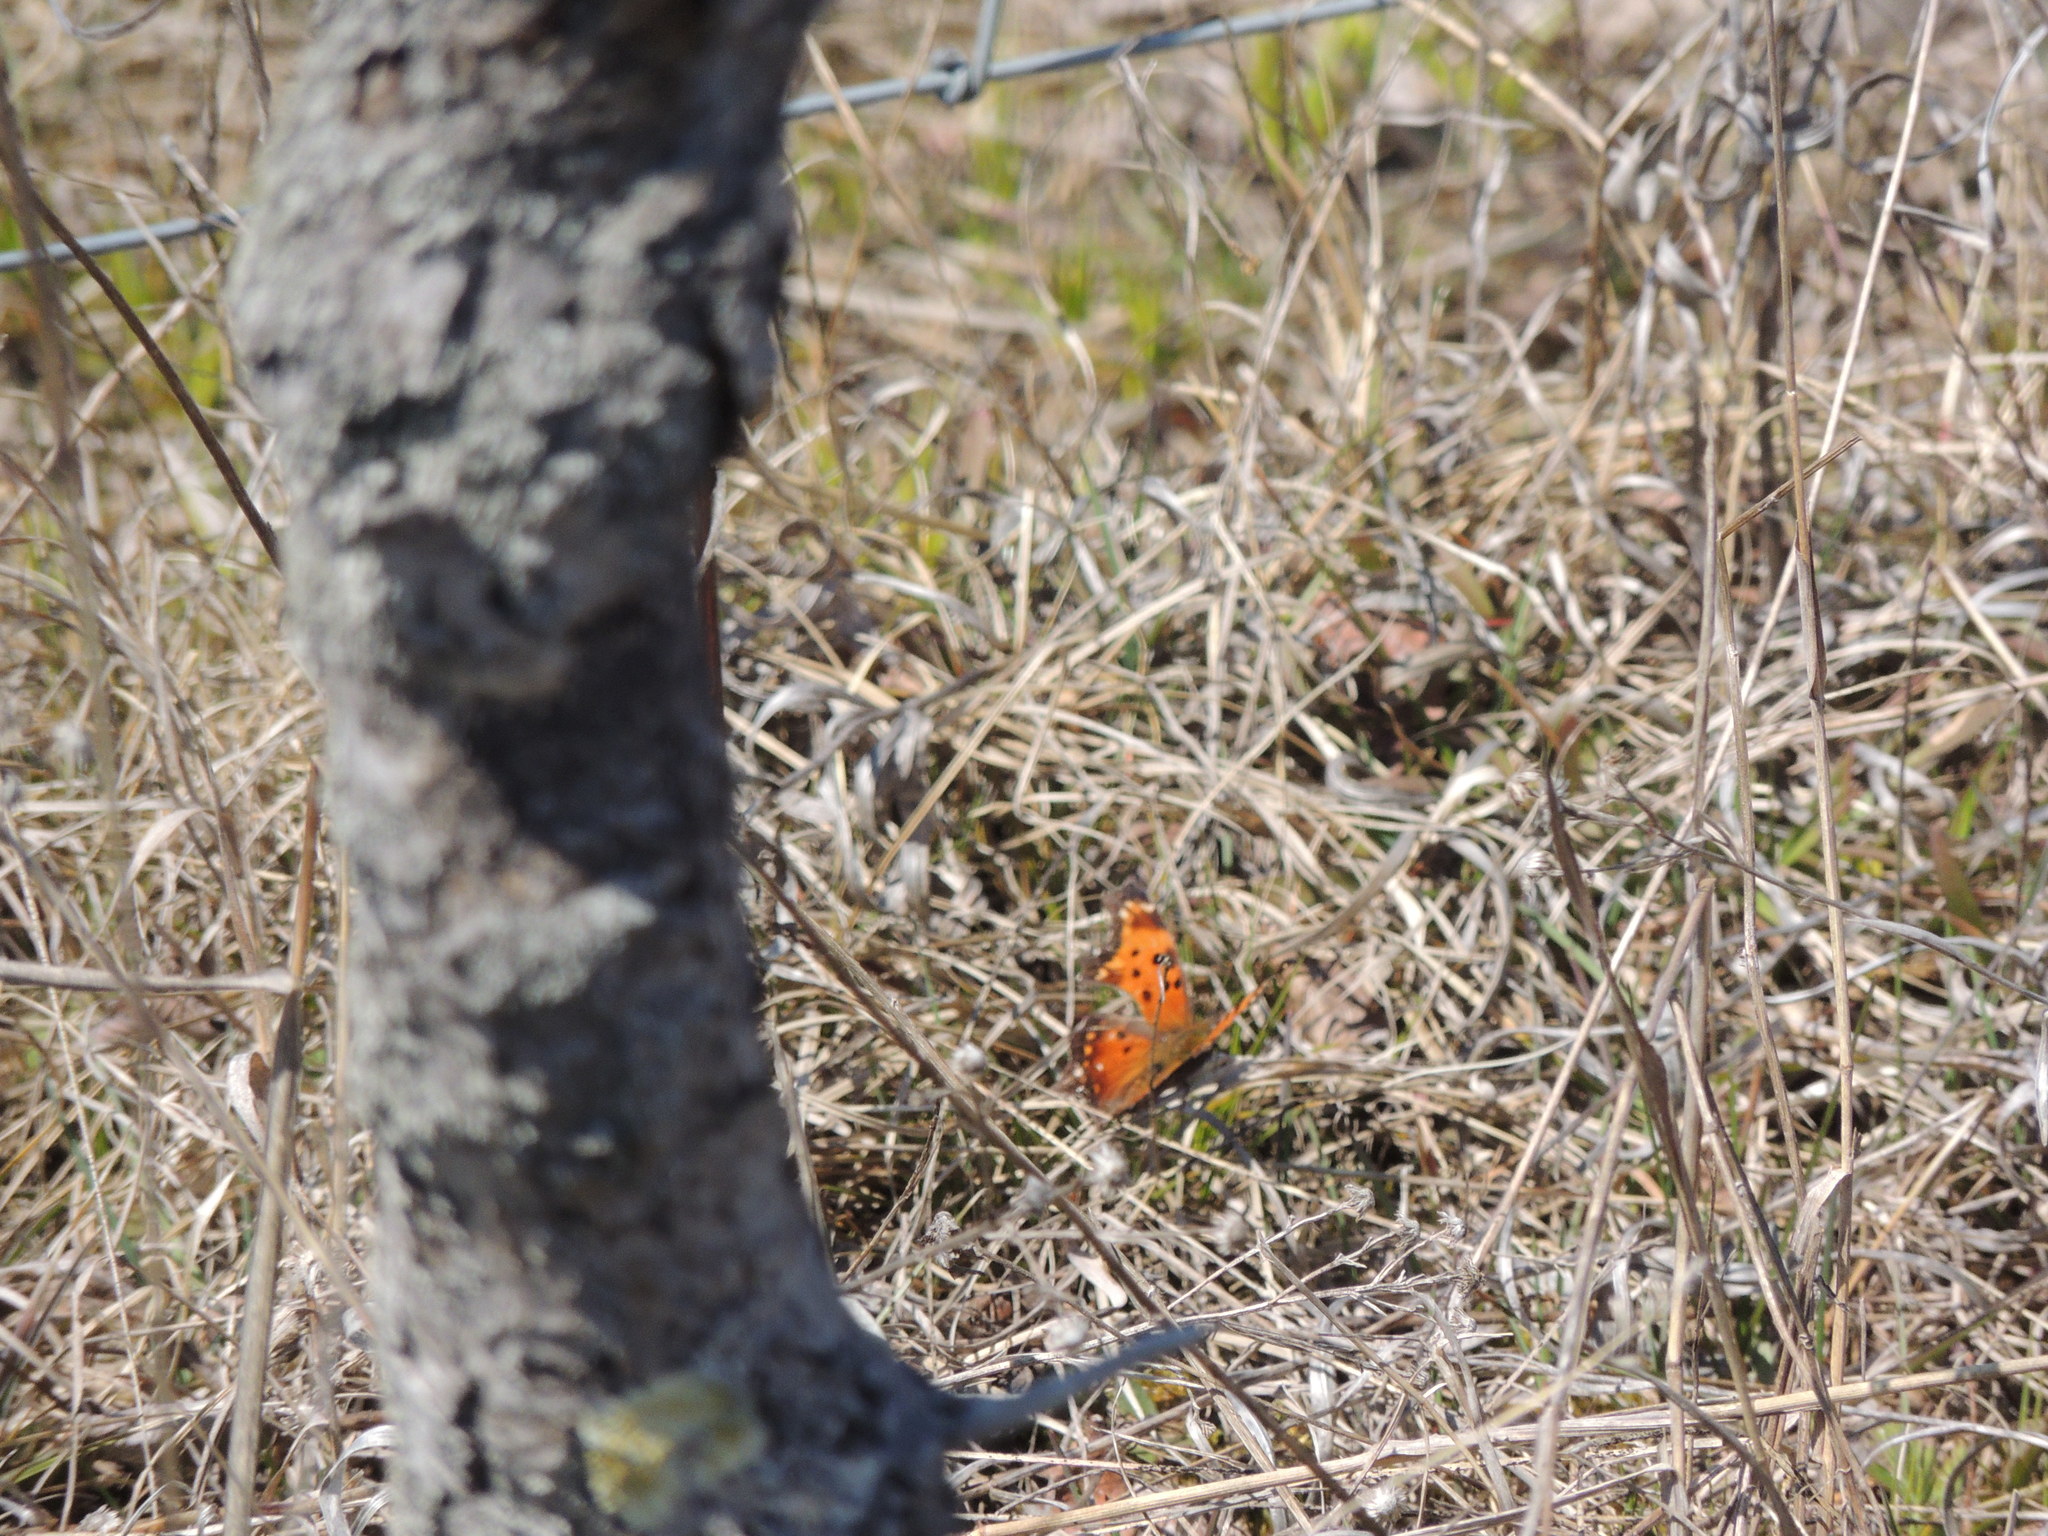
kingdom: Animalia
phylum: Arthropoda
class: Insecta
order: Lepidoptera
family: Nymphalidae
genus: Polygonia
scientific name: Polygonia progne
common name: Gray comma
